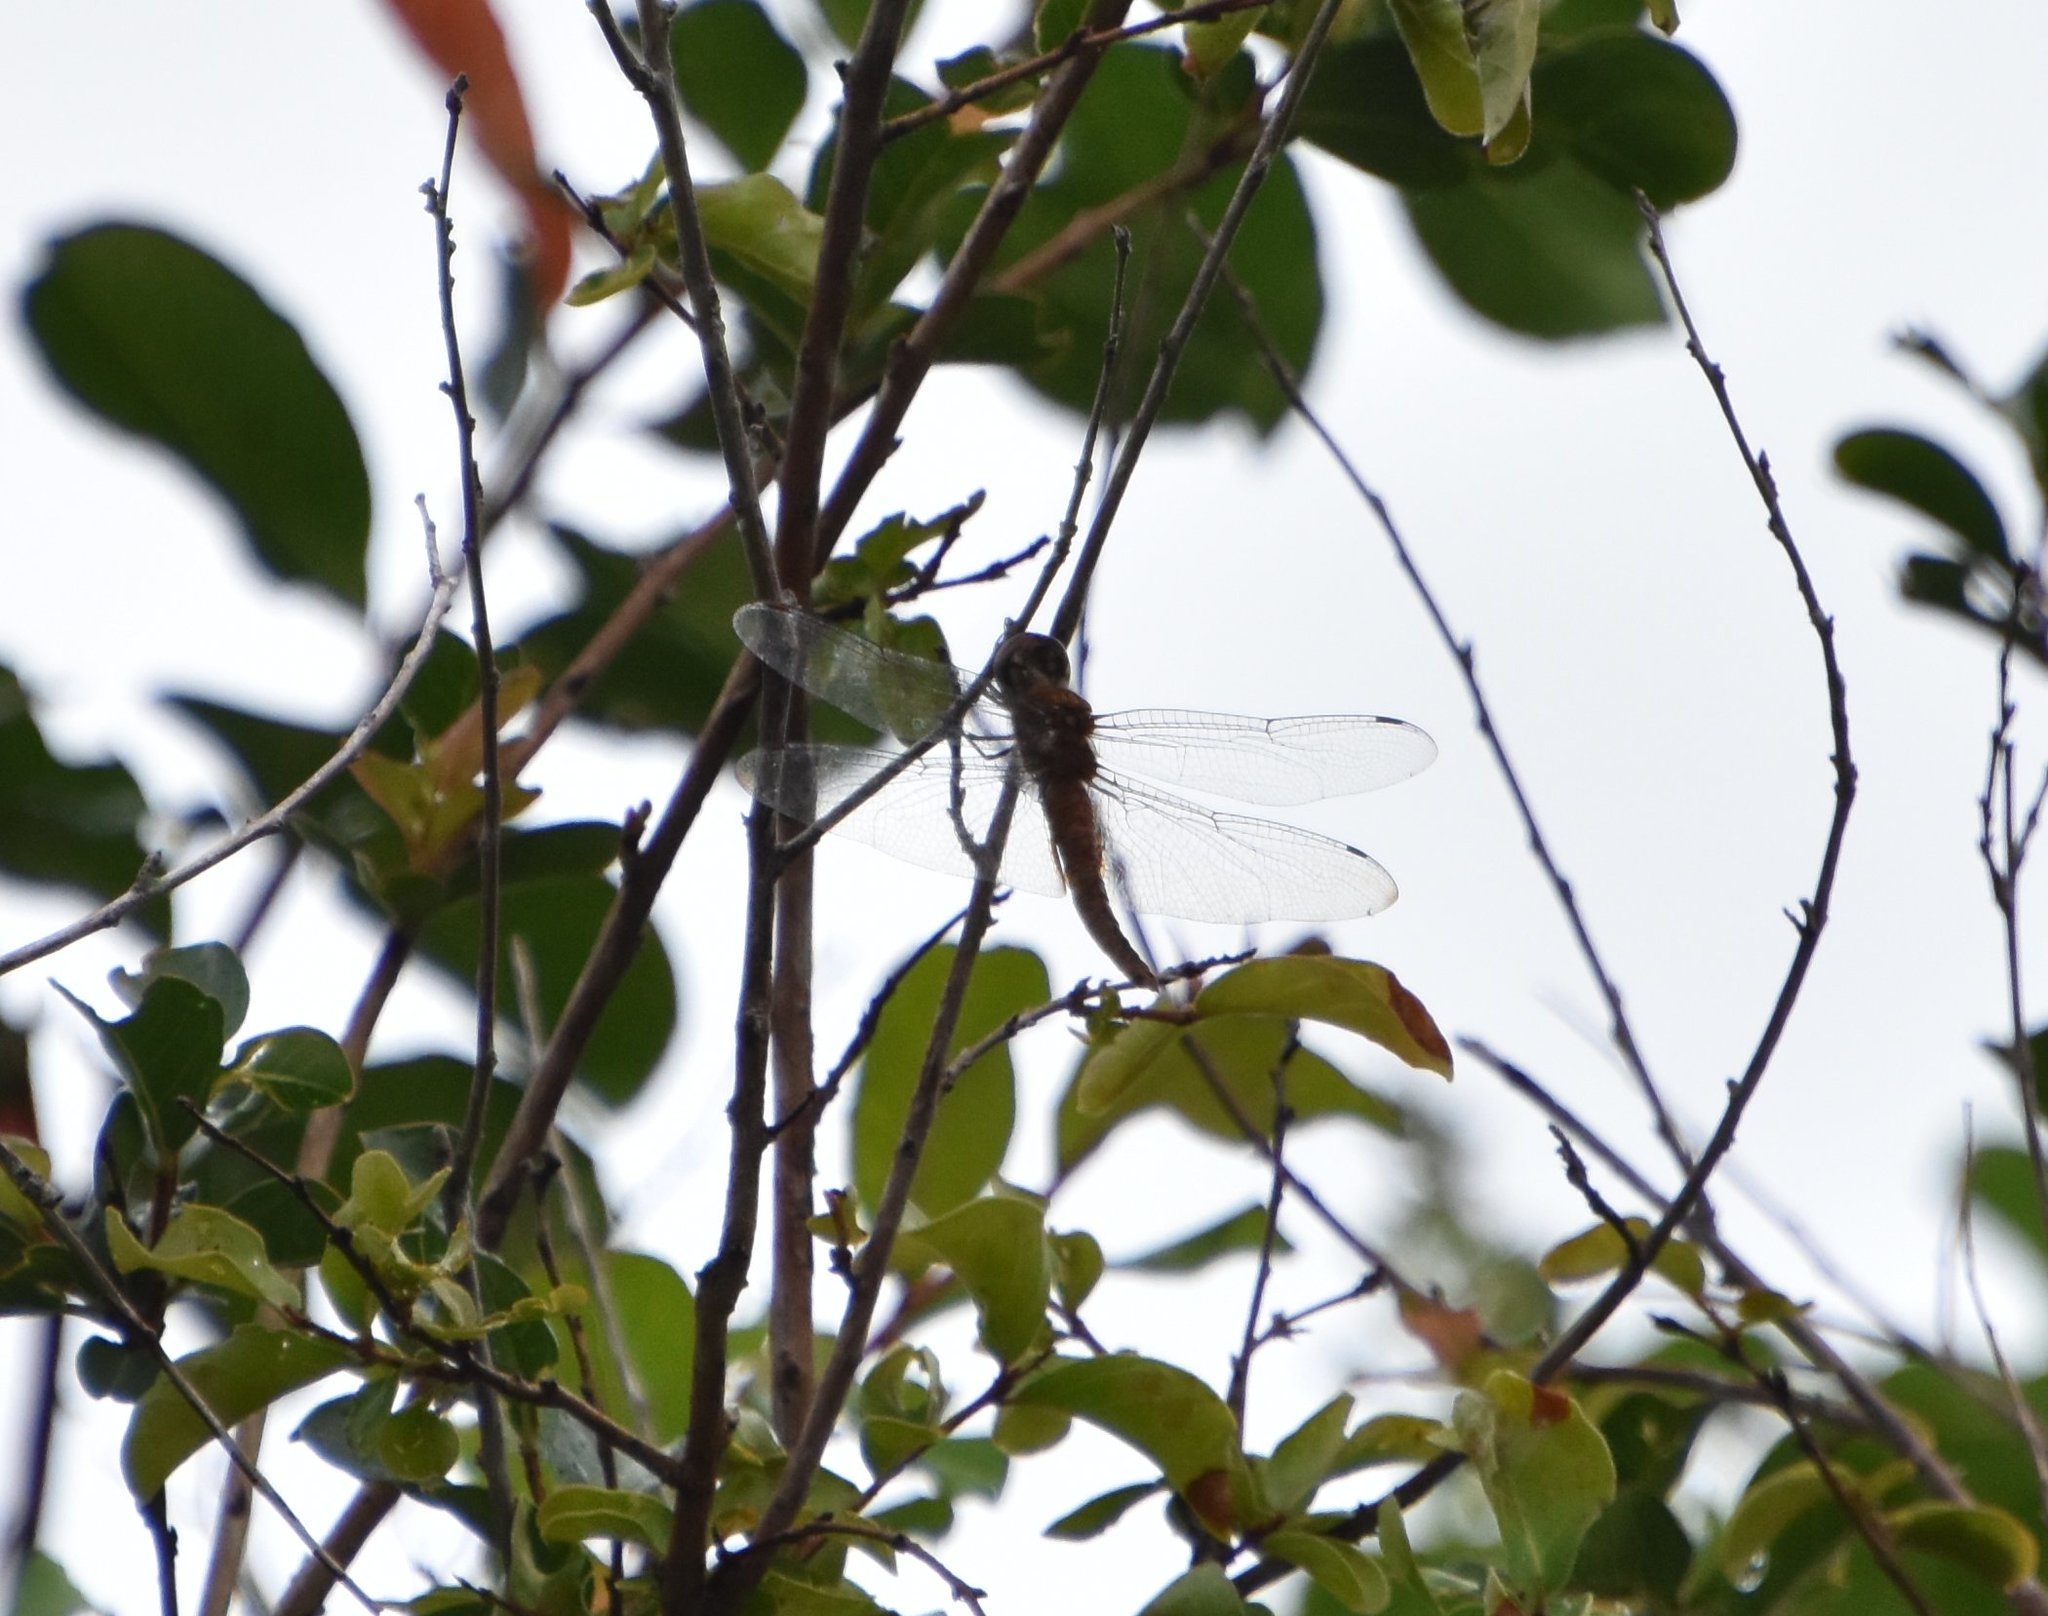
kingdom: Animalia
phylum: Arthropoda
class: Insecta
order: Odonata
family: Libellulidae
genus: Pantala
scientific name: Pantala hymenaea
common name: Spot-winged glider
